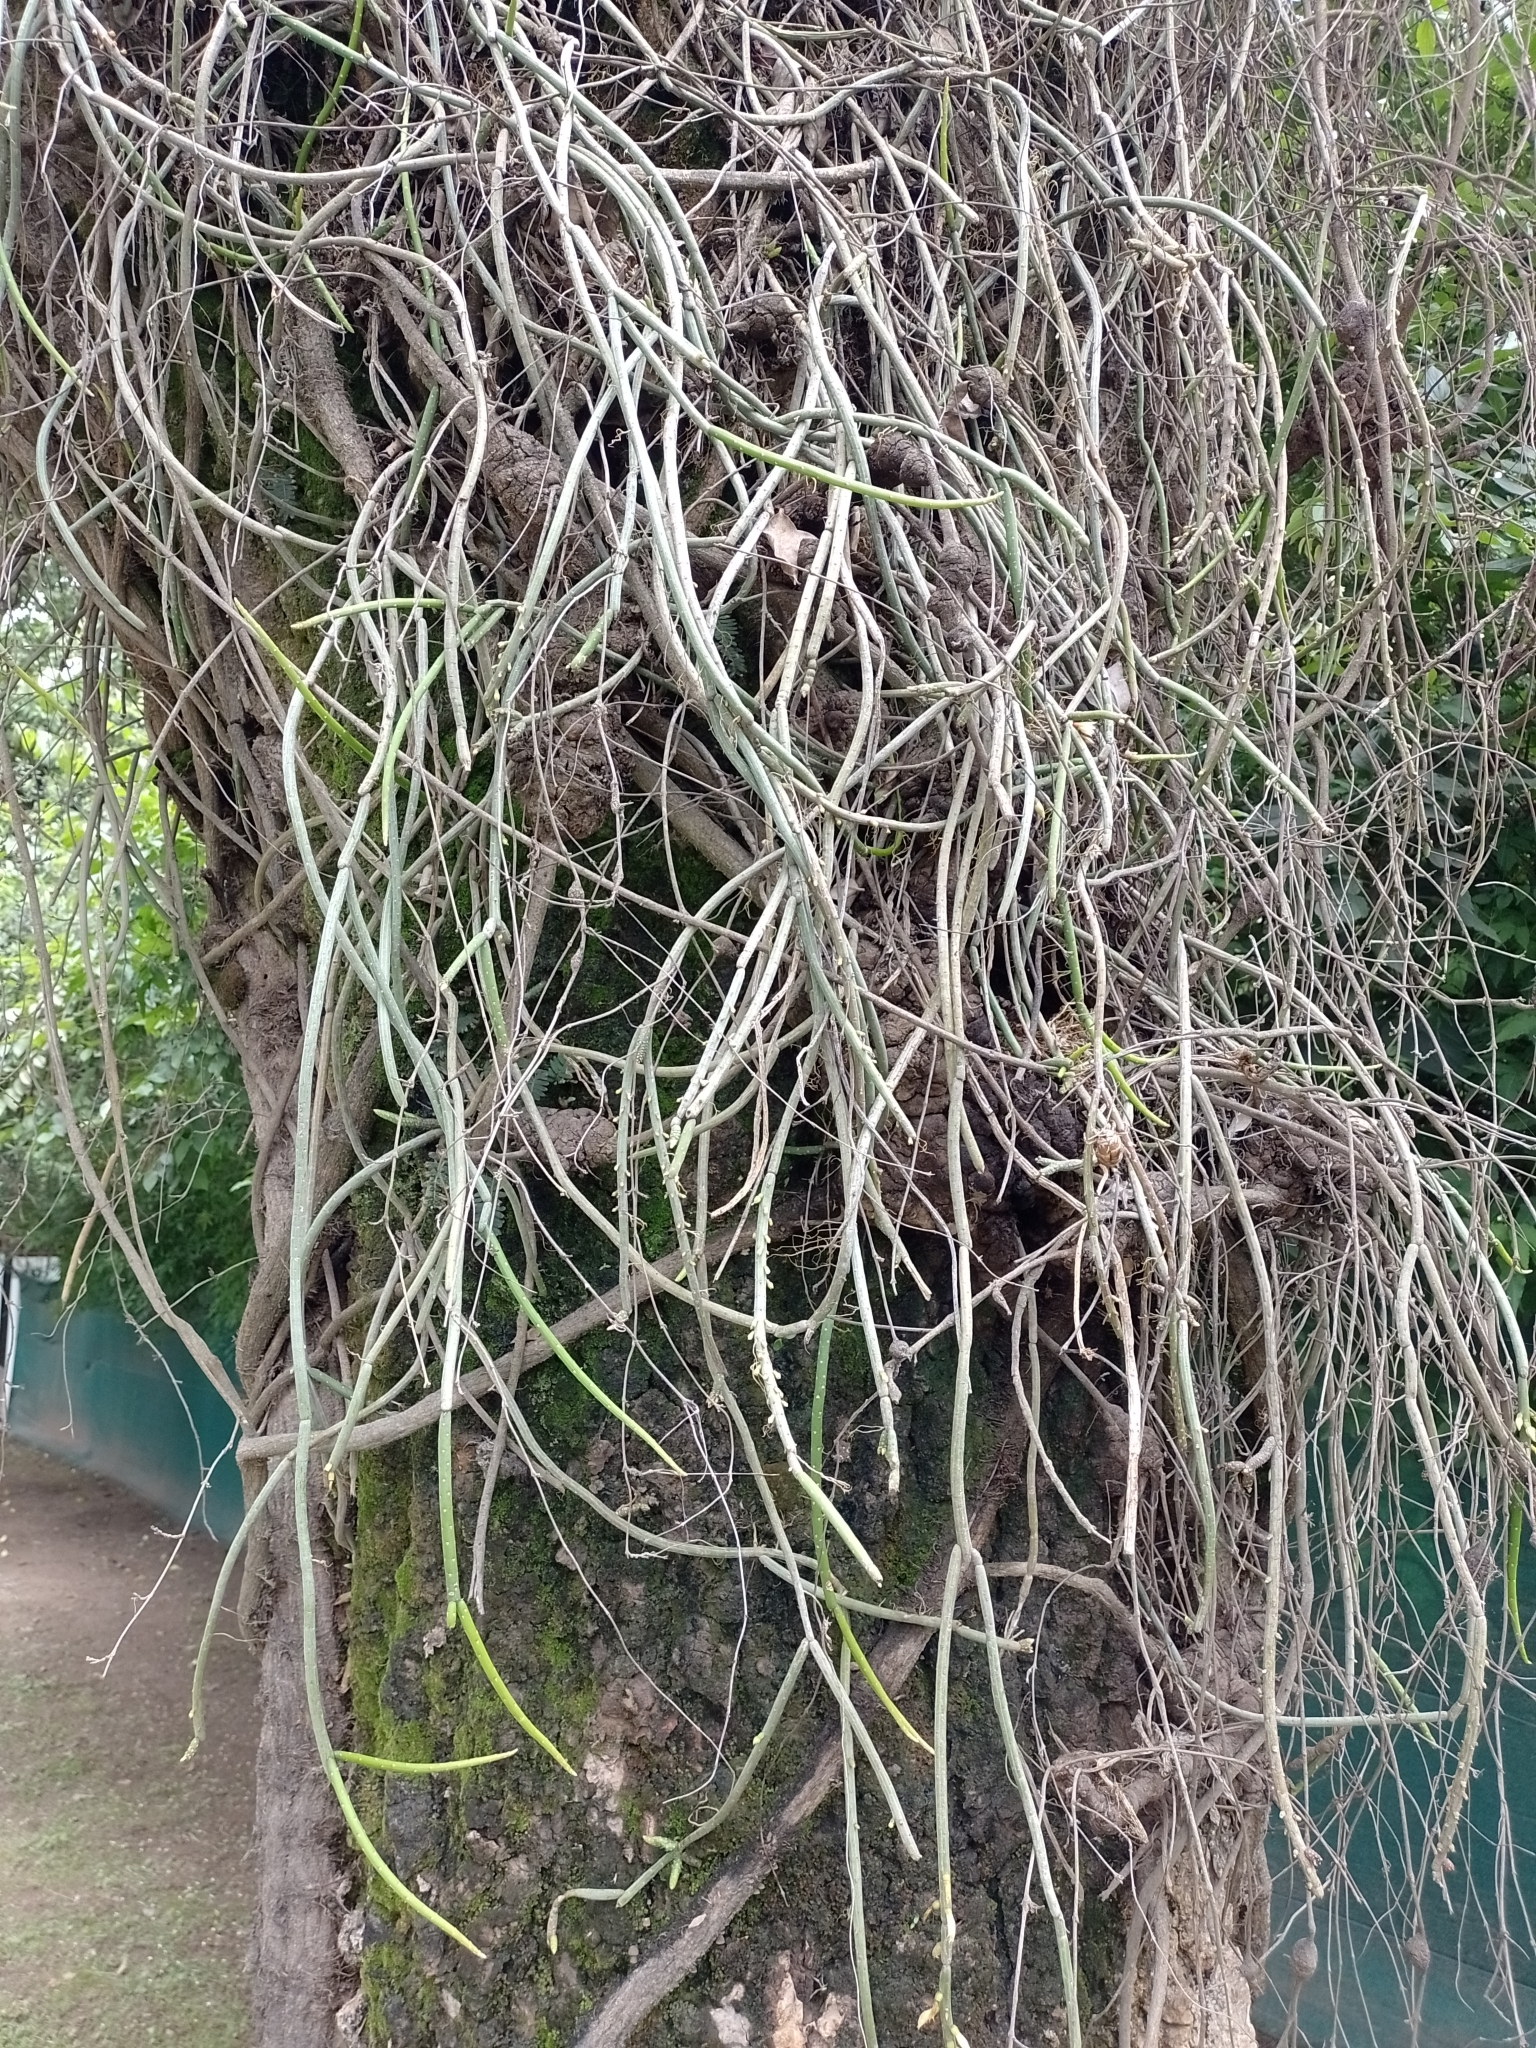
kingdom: Plantae
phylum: Tracheophyta
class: Magnoliopsida
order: Caryophyllales
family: Cactaceae
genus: Lepismium
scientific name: Lepismium lumbricoides
